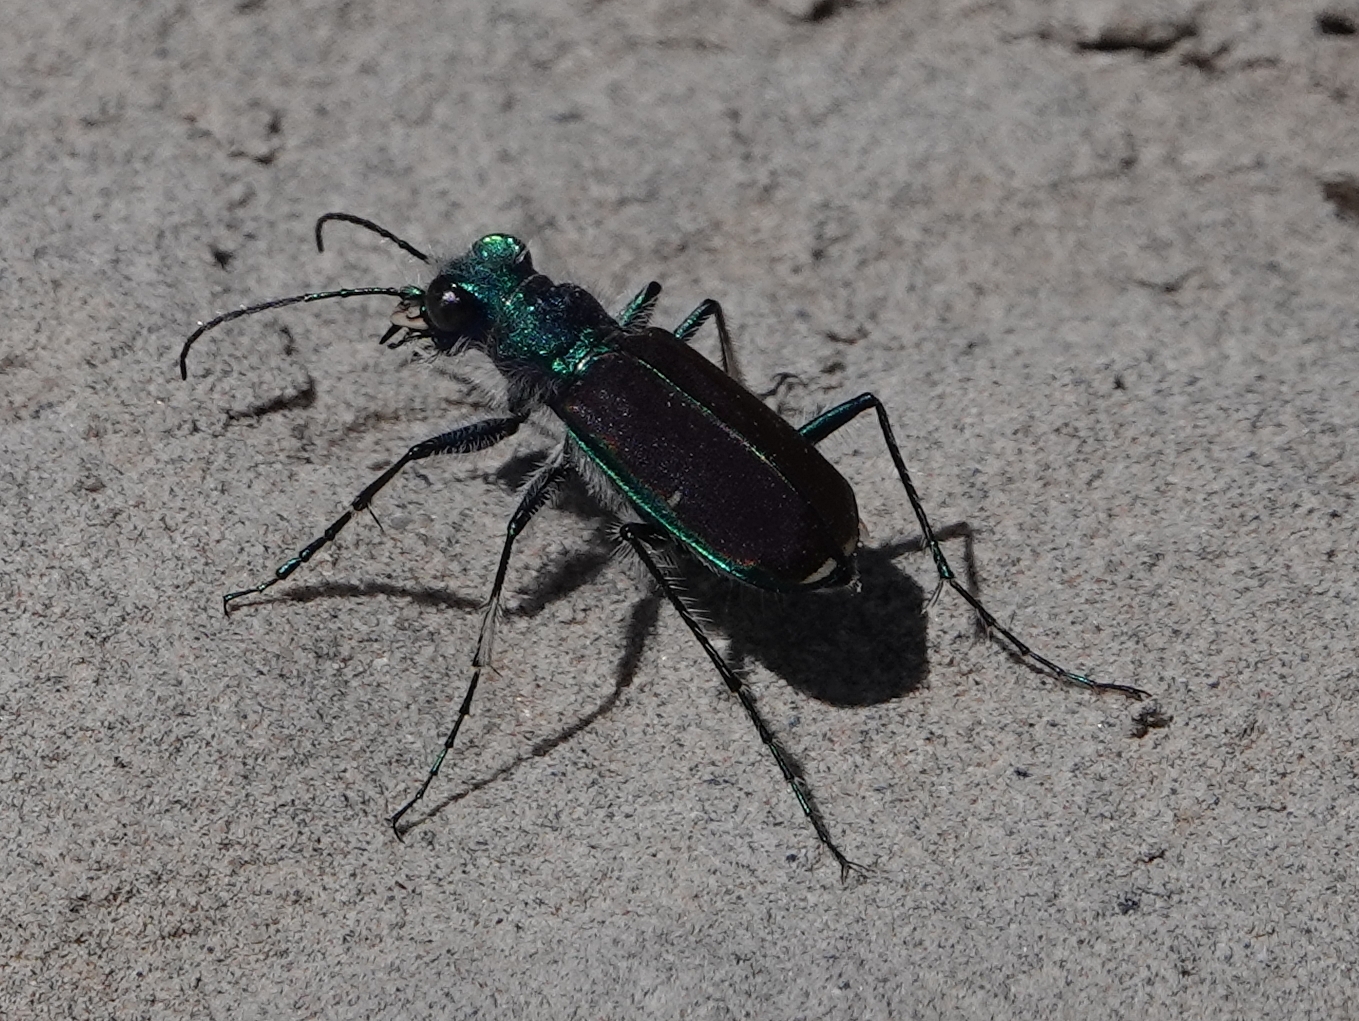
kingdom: Animalia
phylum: Arthropoda
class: Insecta
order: Coleoptera
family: Carabidae
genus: Cicindela
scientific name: Cicindela splendida
